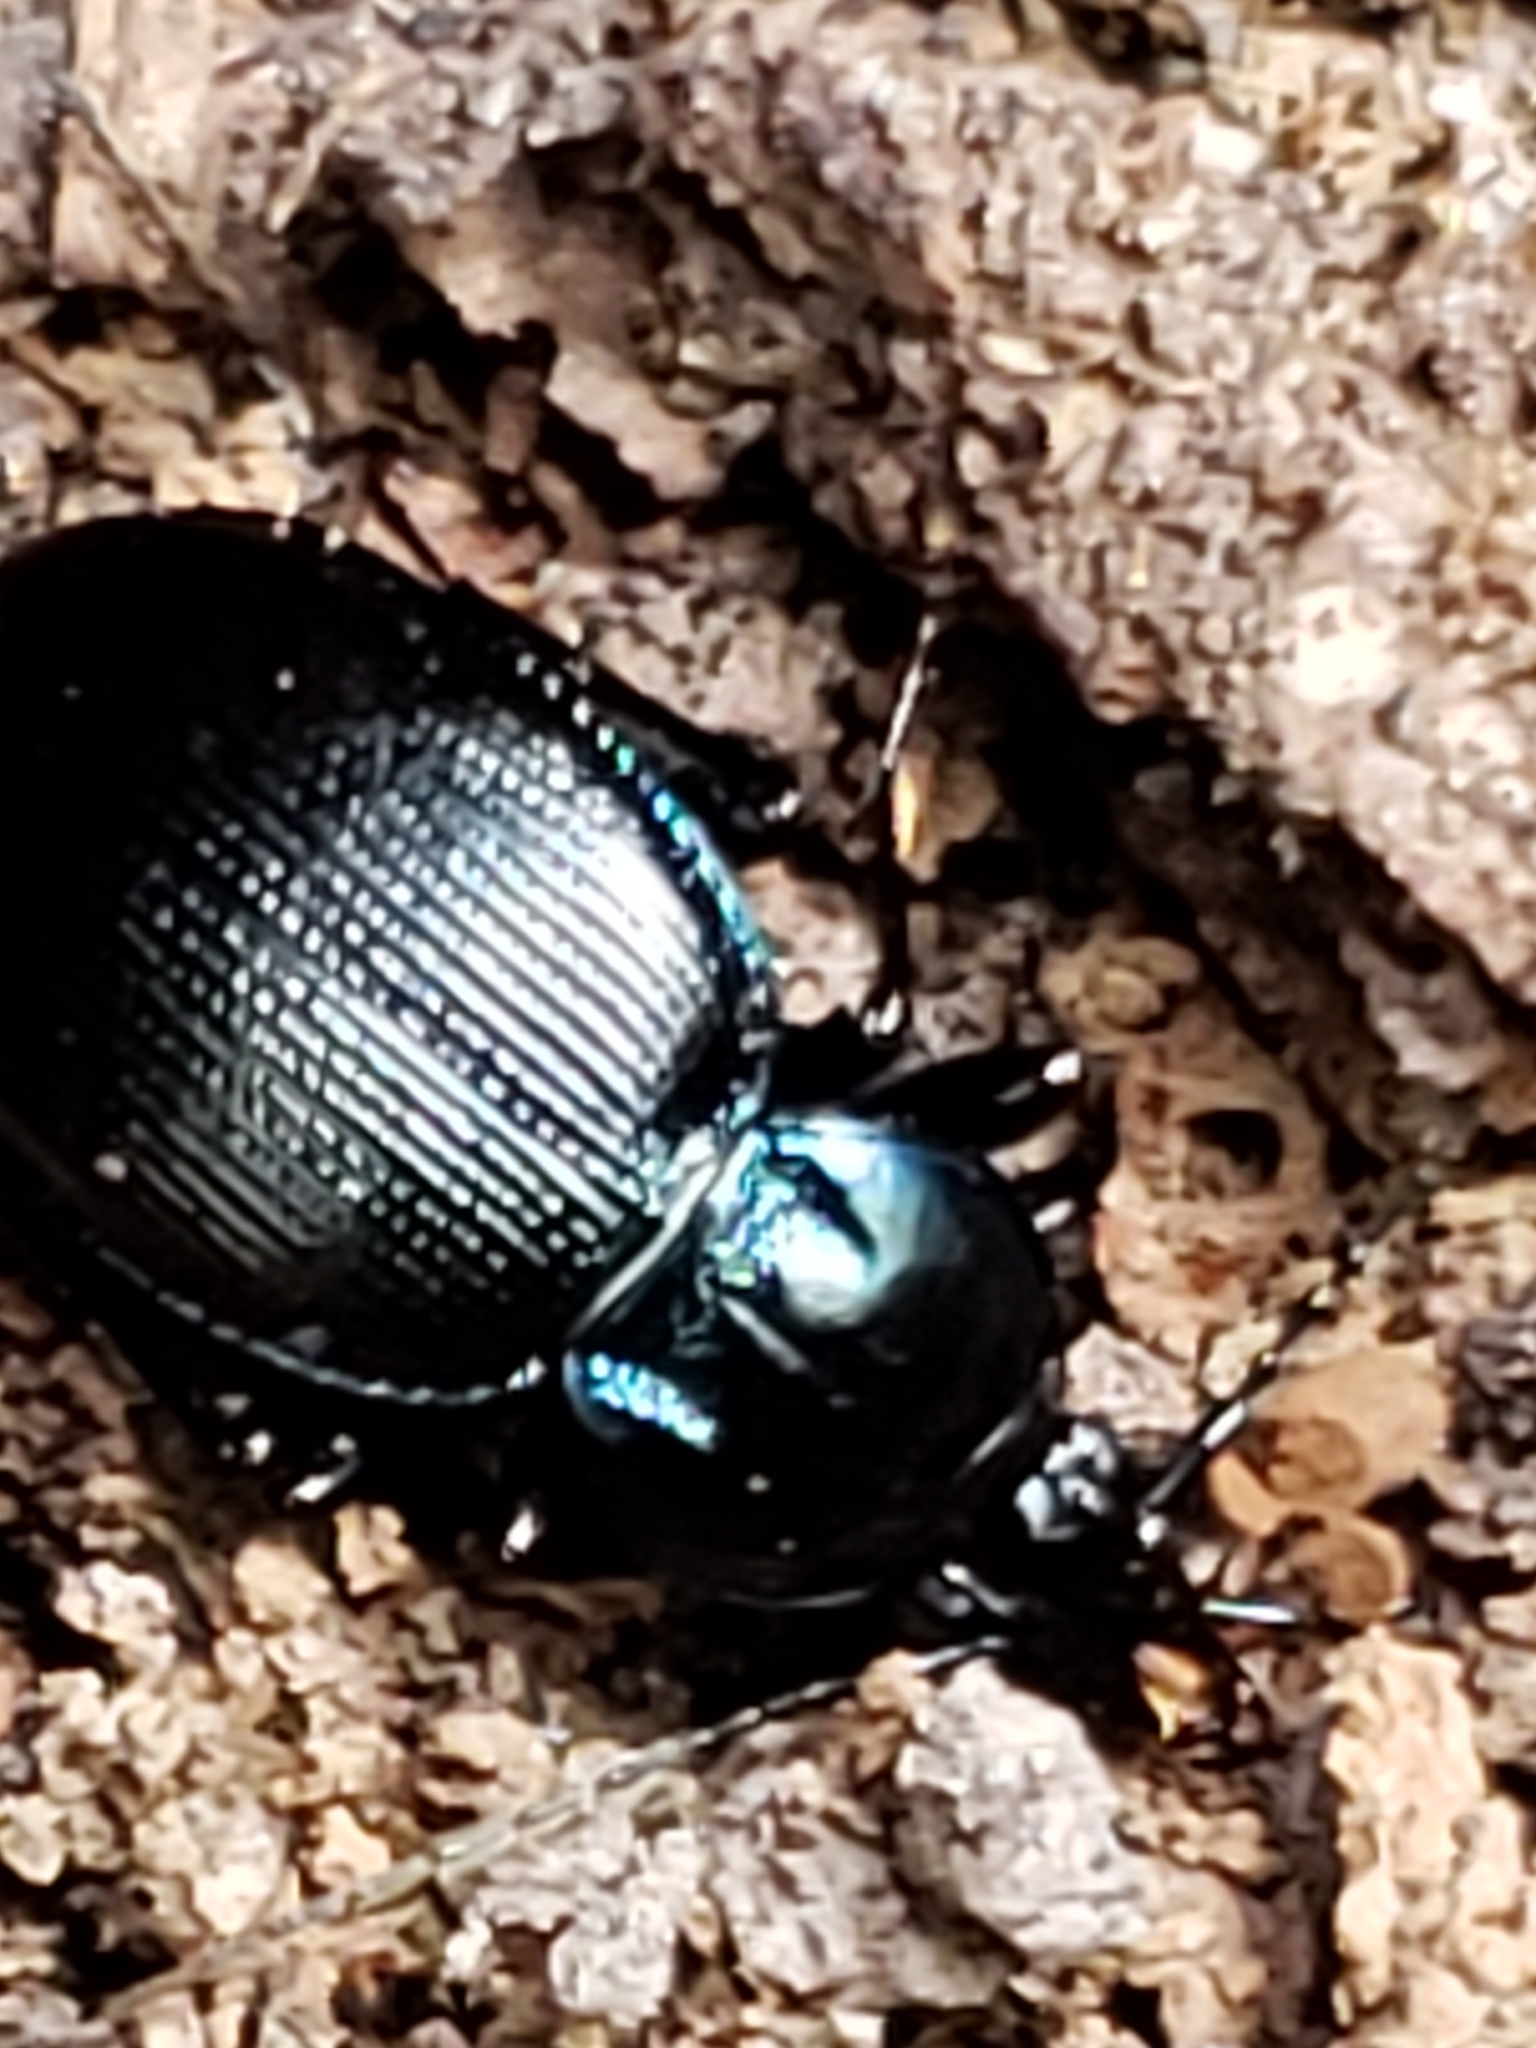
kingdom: Animalia
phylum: Arthropoda
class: Insecta
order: Coleoptera
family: Carabidae
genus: Sphaeroderus
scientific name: Sphaeroderus stenostomus
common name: Small snail-eating ground beetle
